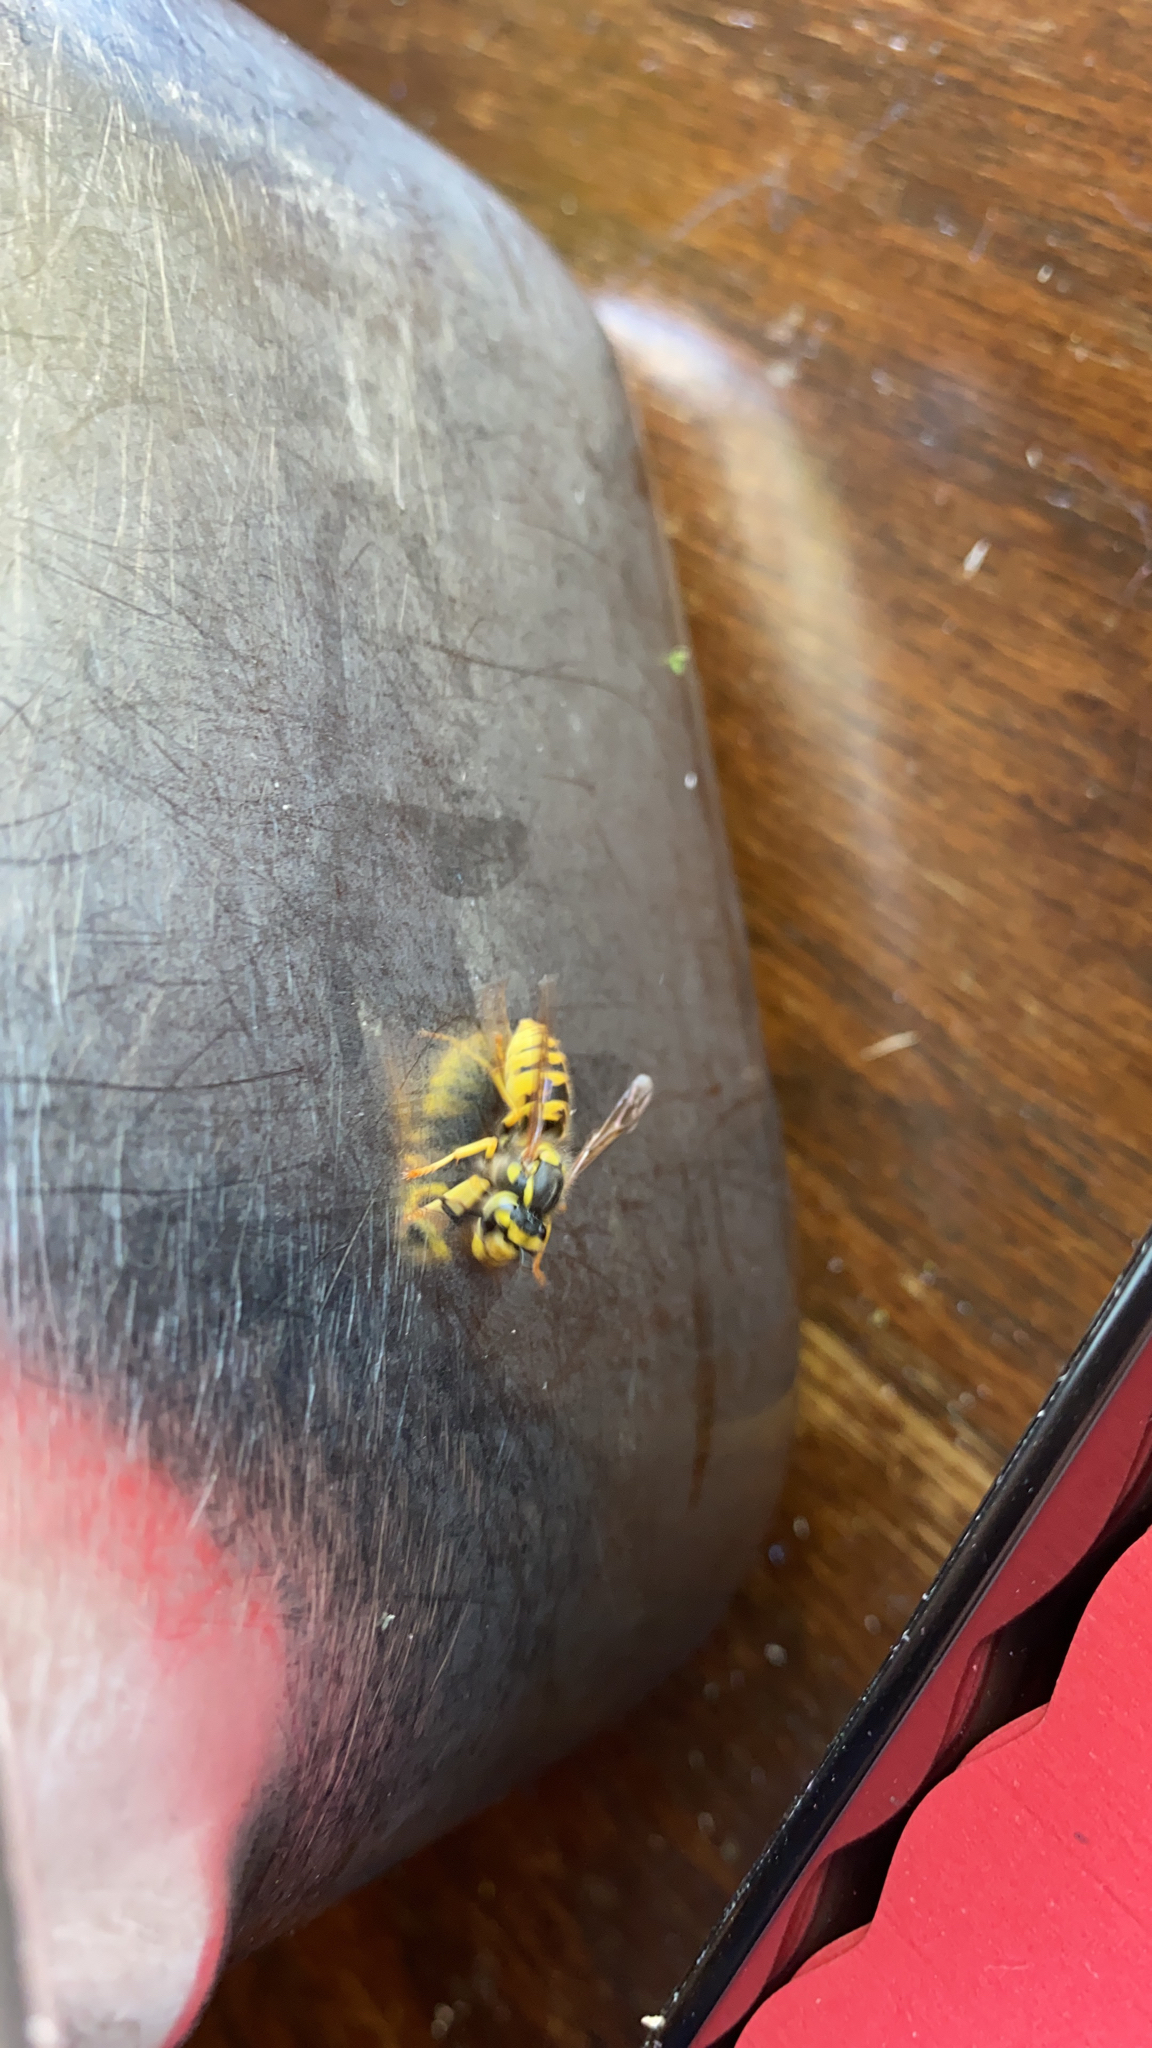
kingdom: Animalia
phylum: Arthropoda
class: Insecta
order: Hymenoptera
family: Vespidae
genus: Vespula
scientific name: Vespula germanica
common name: German wasp
